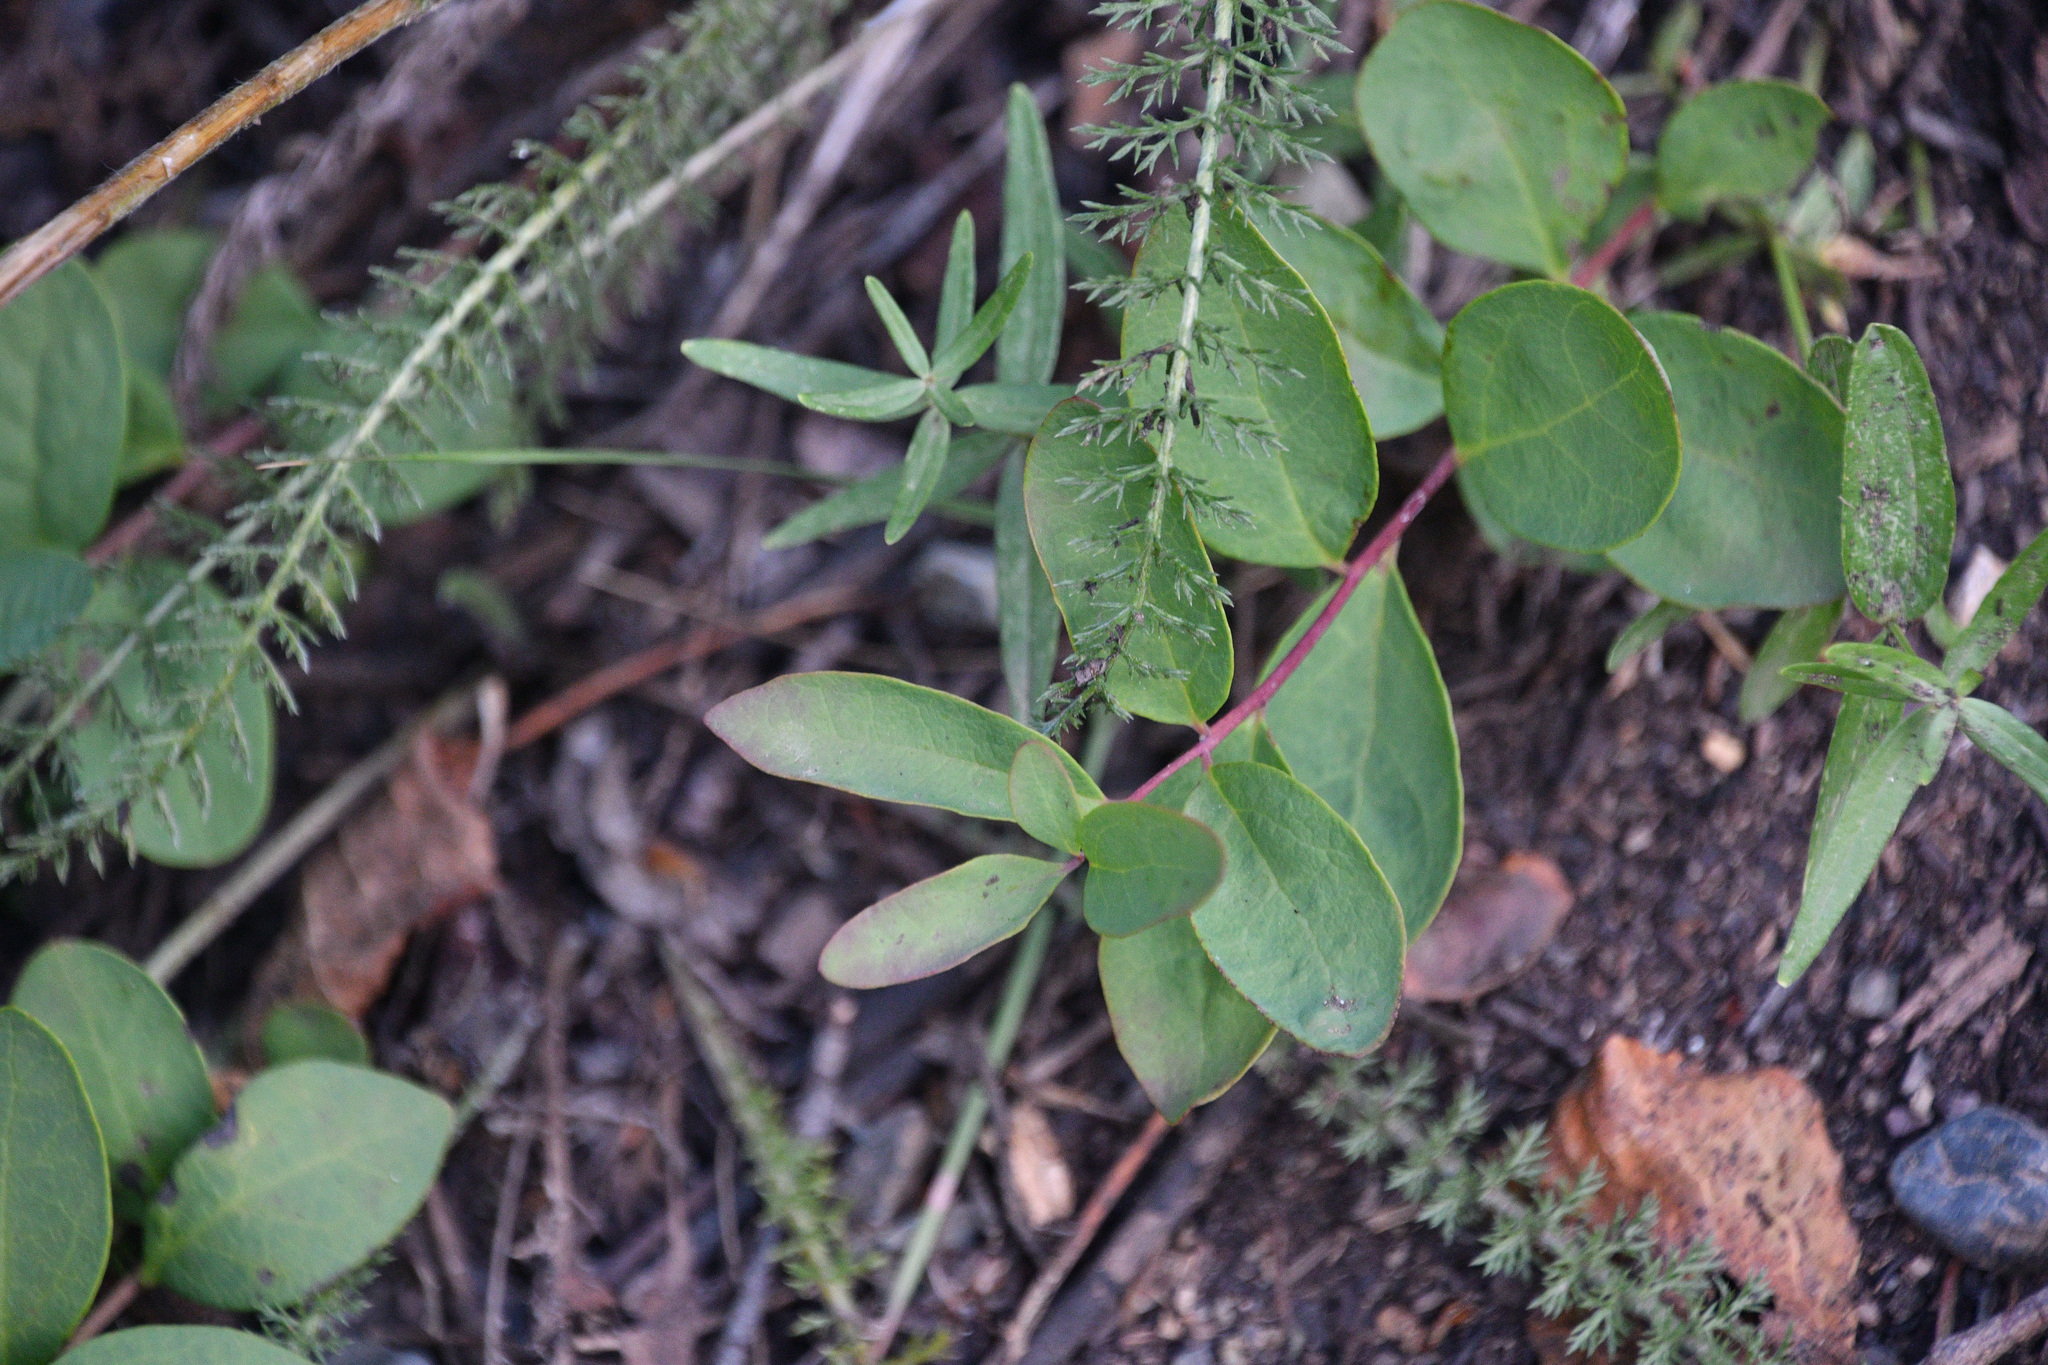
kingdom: Plantae
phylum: Tracheophyta
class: Magnoliopsida
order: Santalales
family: Comandraceae
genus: Geocaulon
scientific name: Geocaulon lividum
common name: Earthberry
